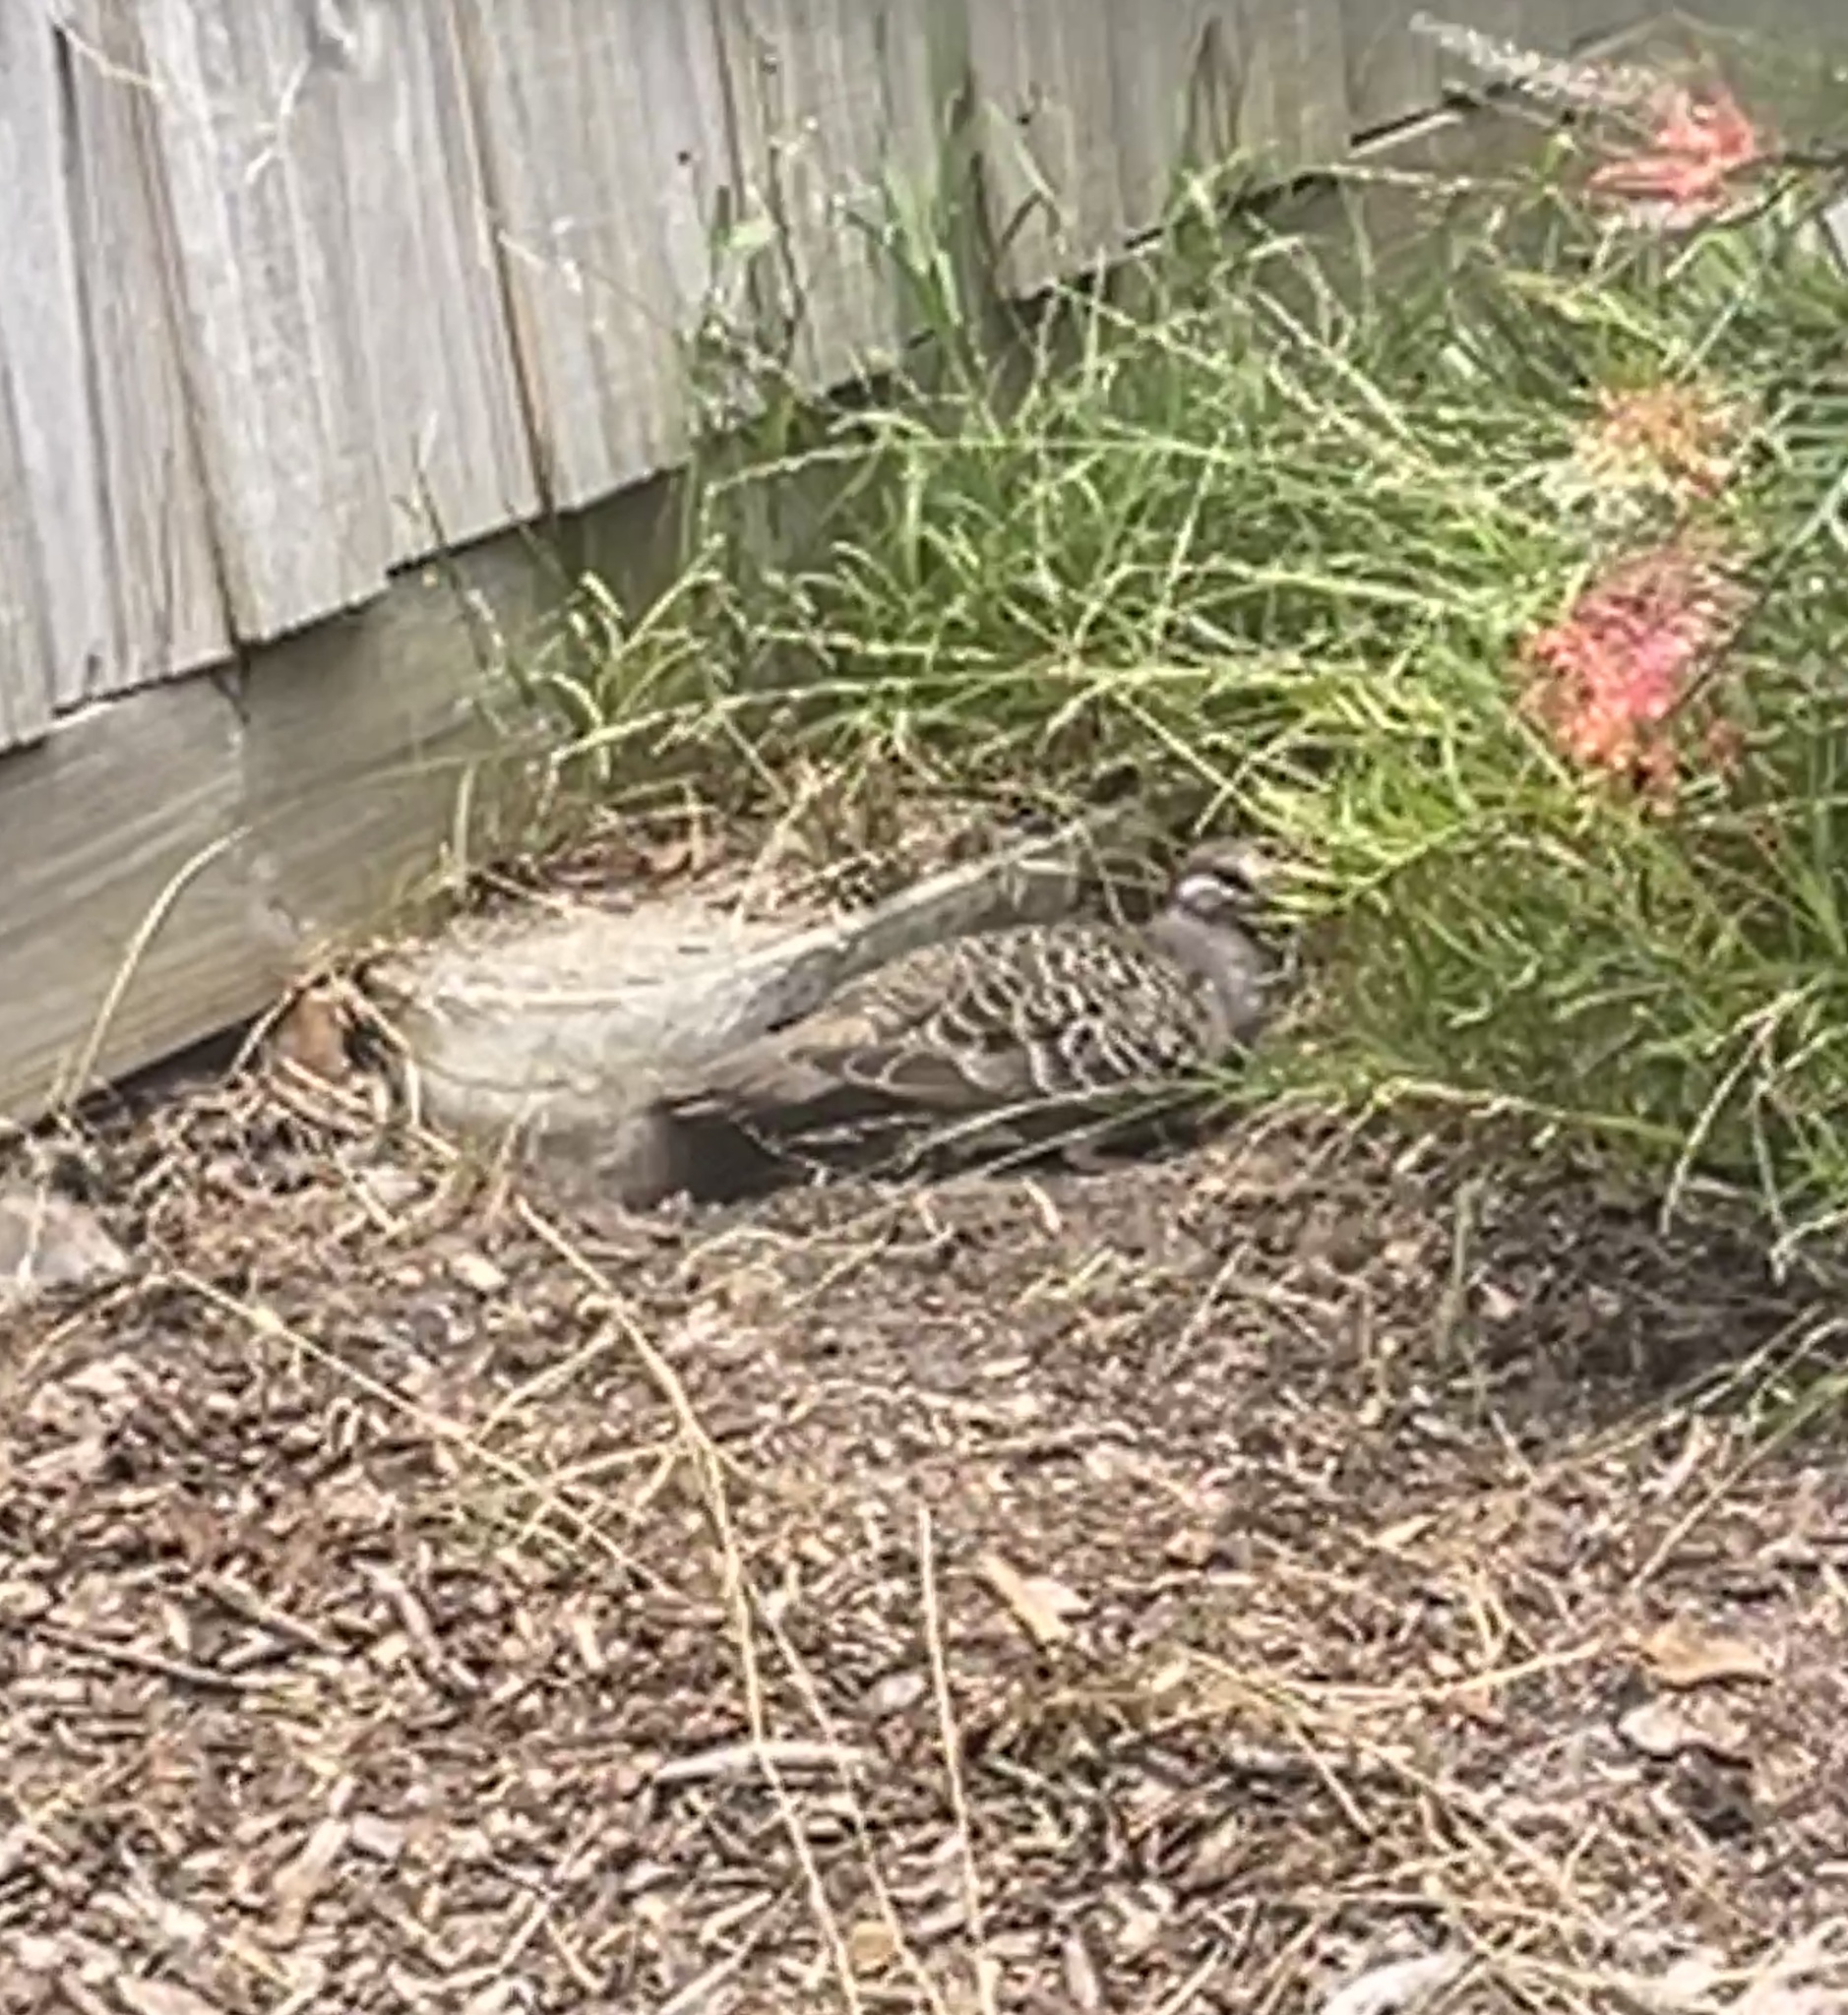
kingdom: Animalia
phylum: Chordata
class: Aves
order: Columbiformes
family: Columbidae
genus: Phaps
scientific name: Phaps chalcoptera
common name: Common bronzewing
